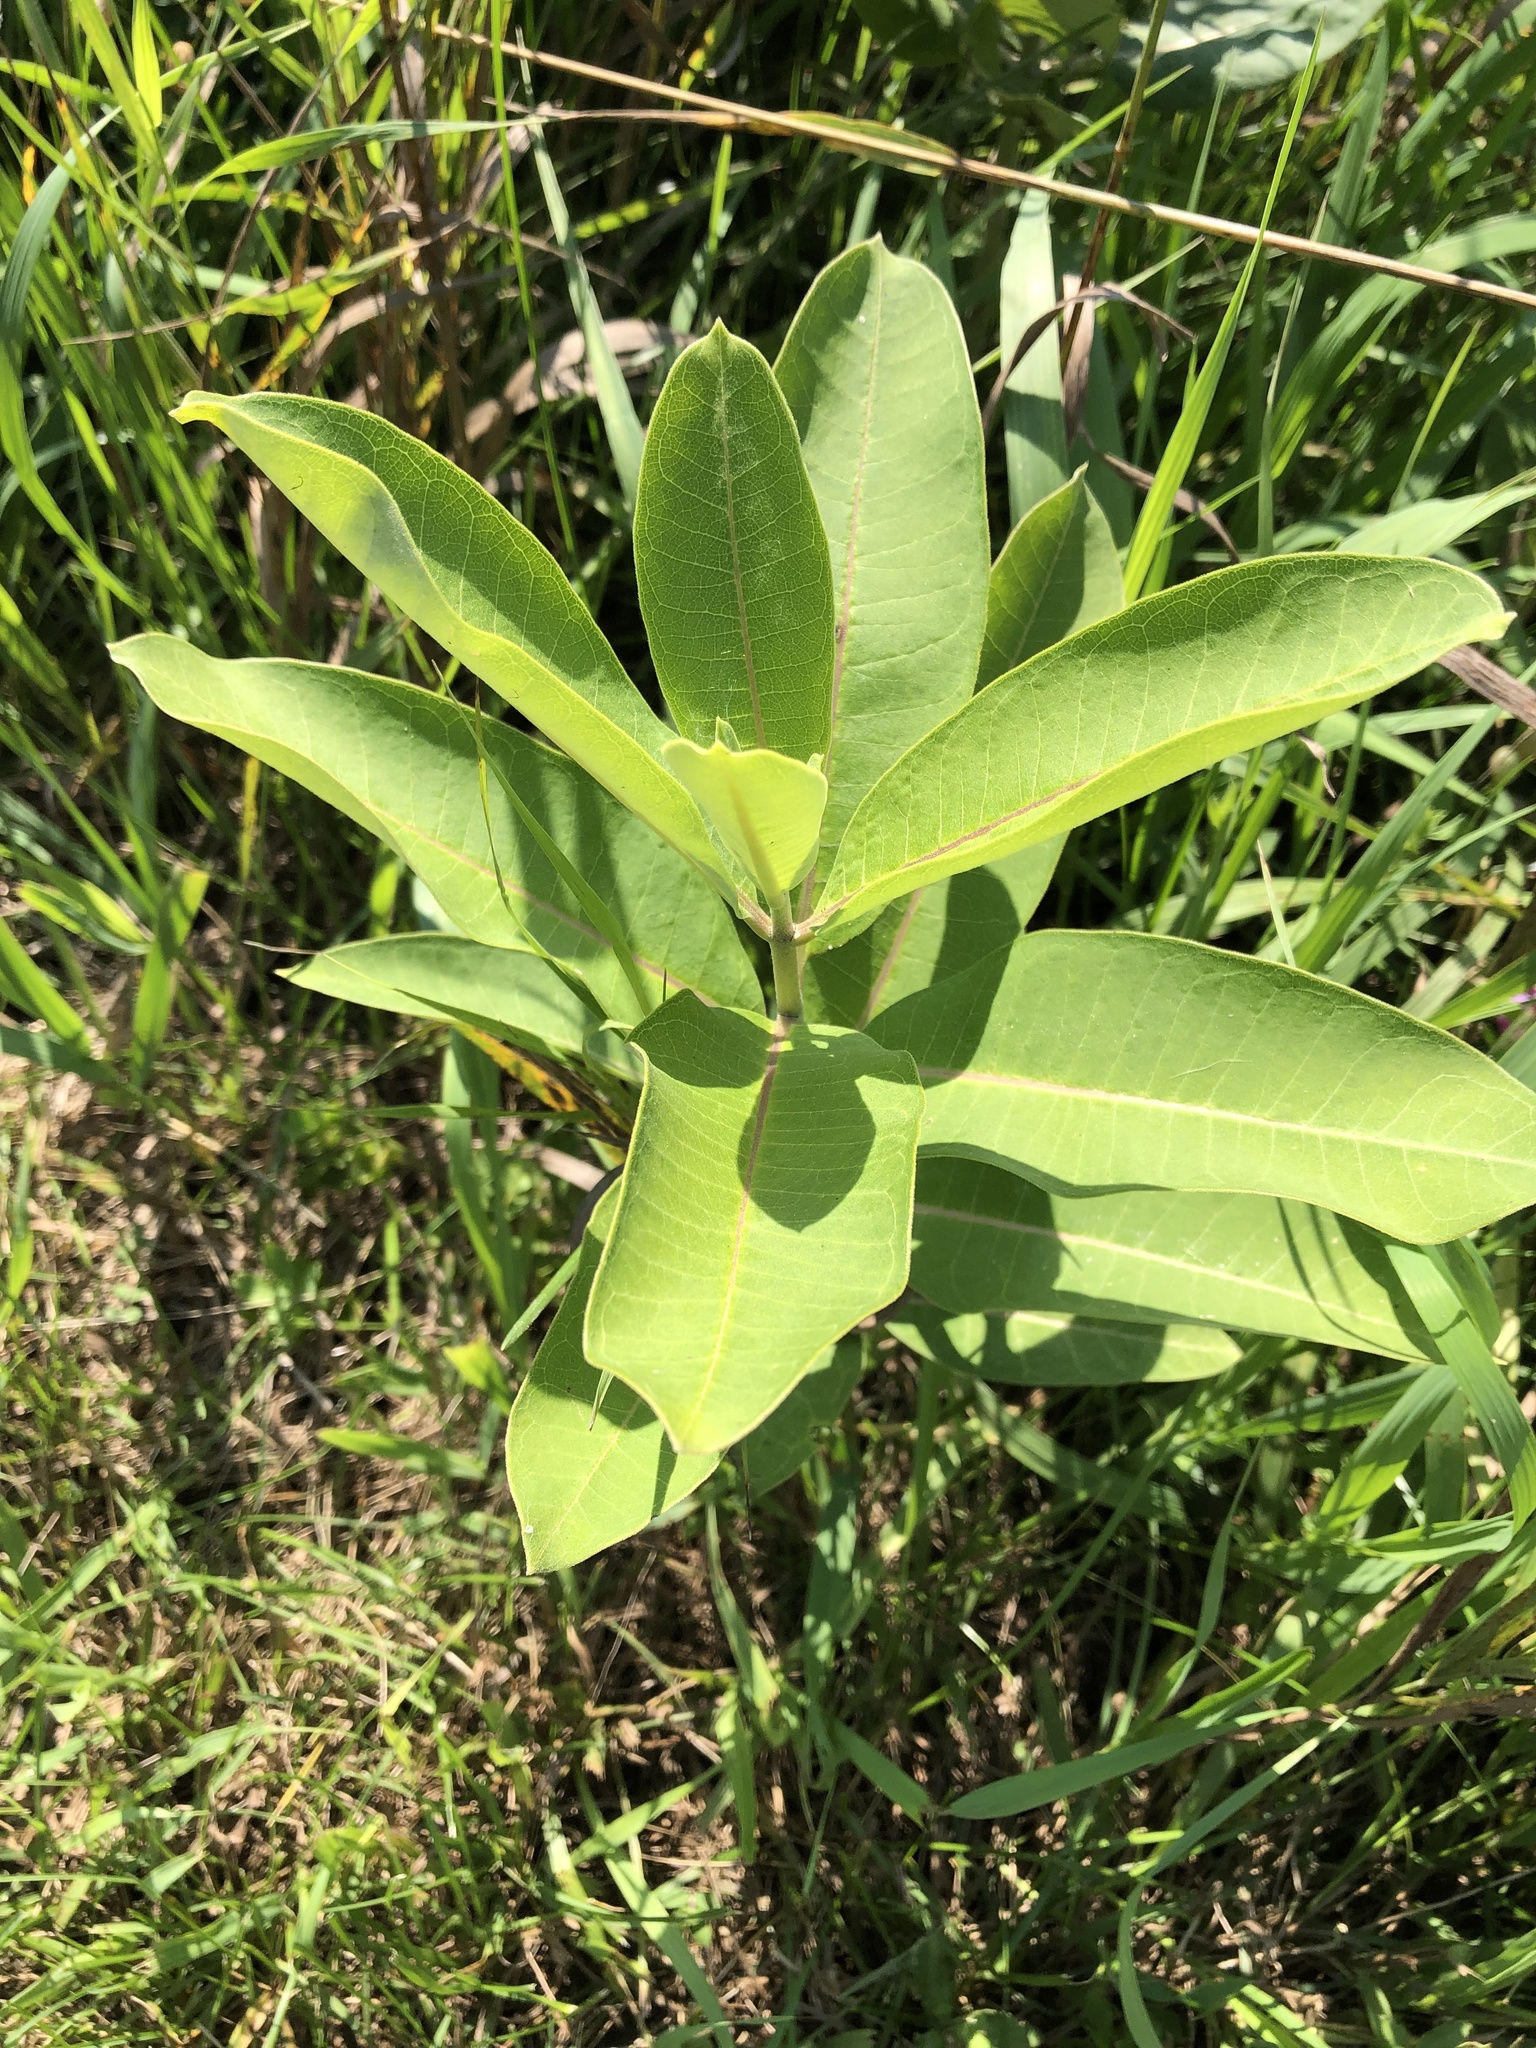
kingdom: Plantae
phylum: Tracheophyta
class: Magnoliopsida
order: Gentianales
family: Apocynaceae
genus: Asclepias
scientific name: Asclepias syriaca
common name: Common milkweed
